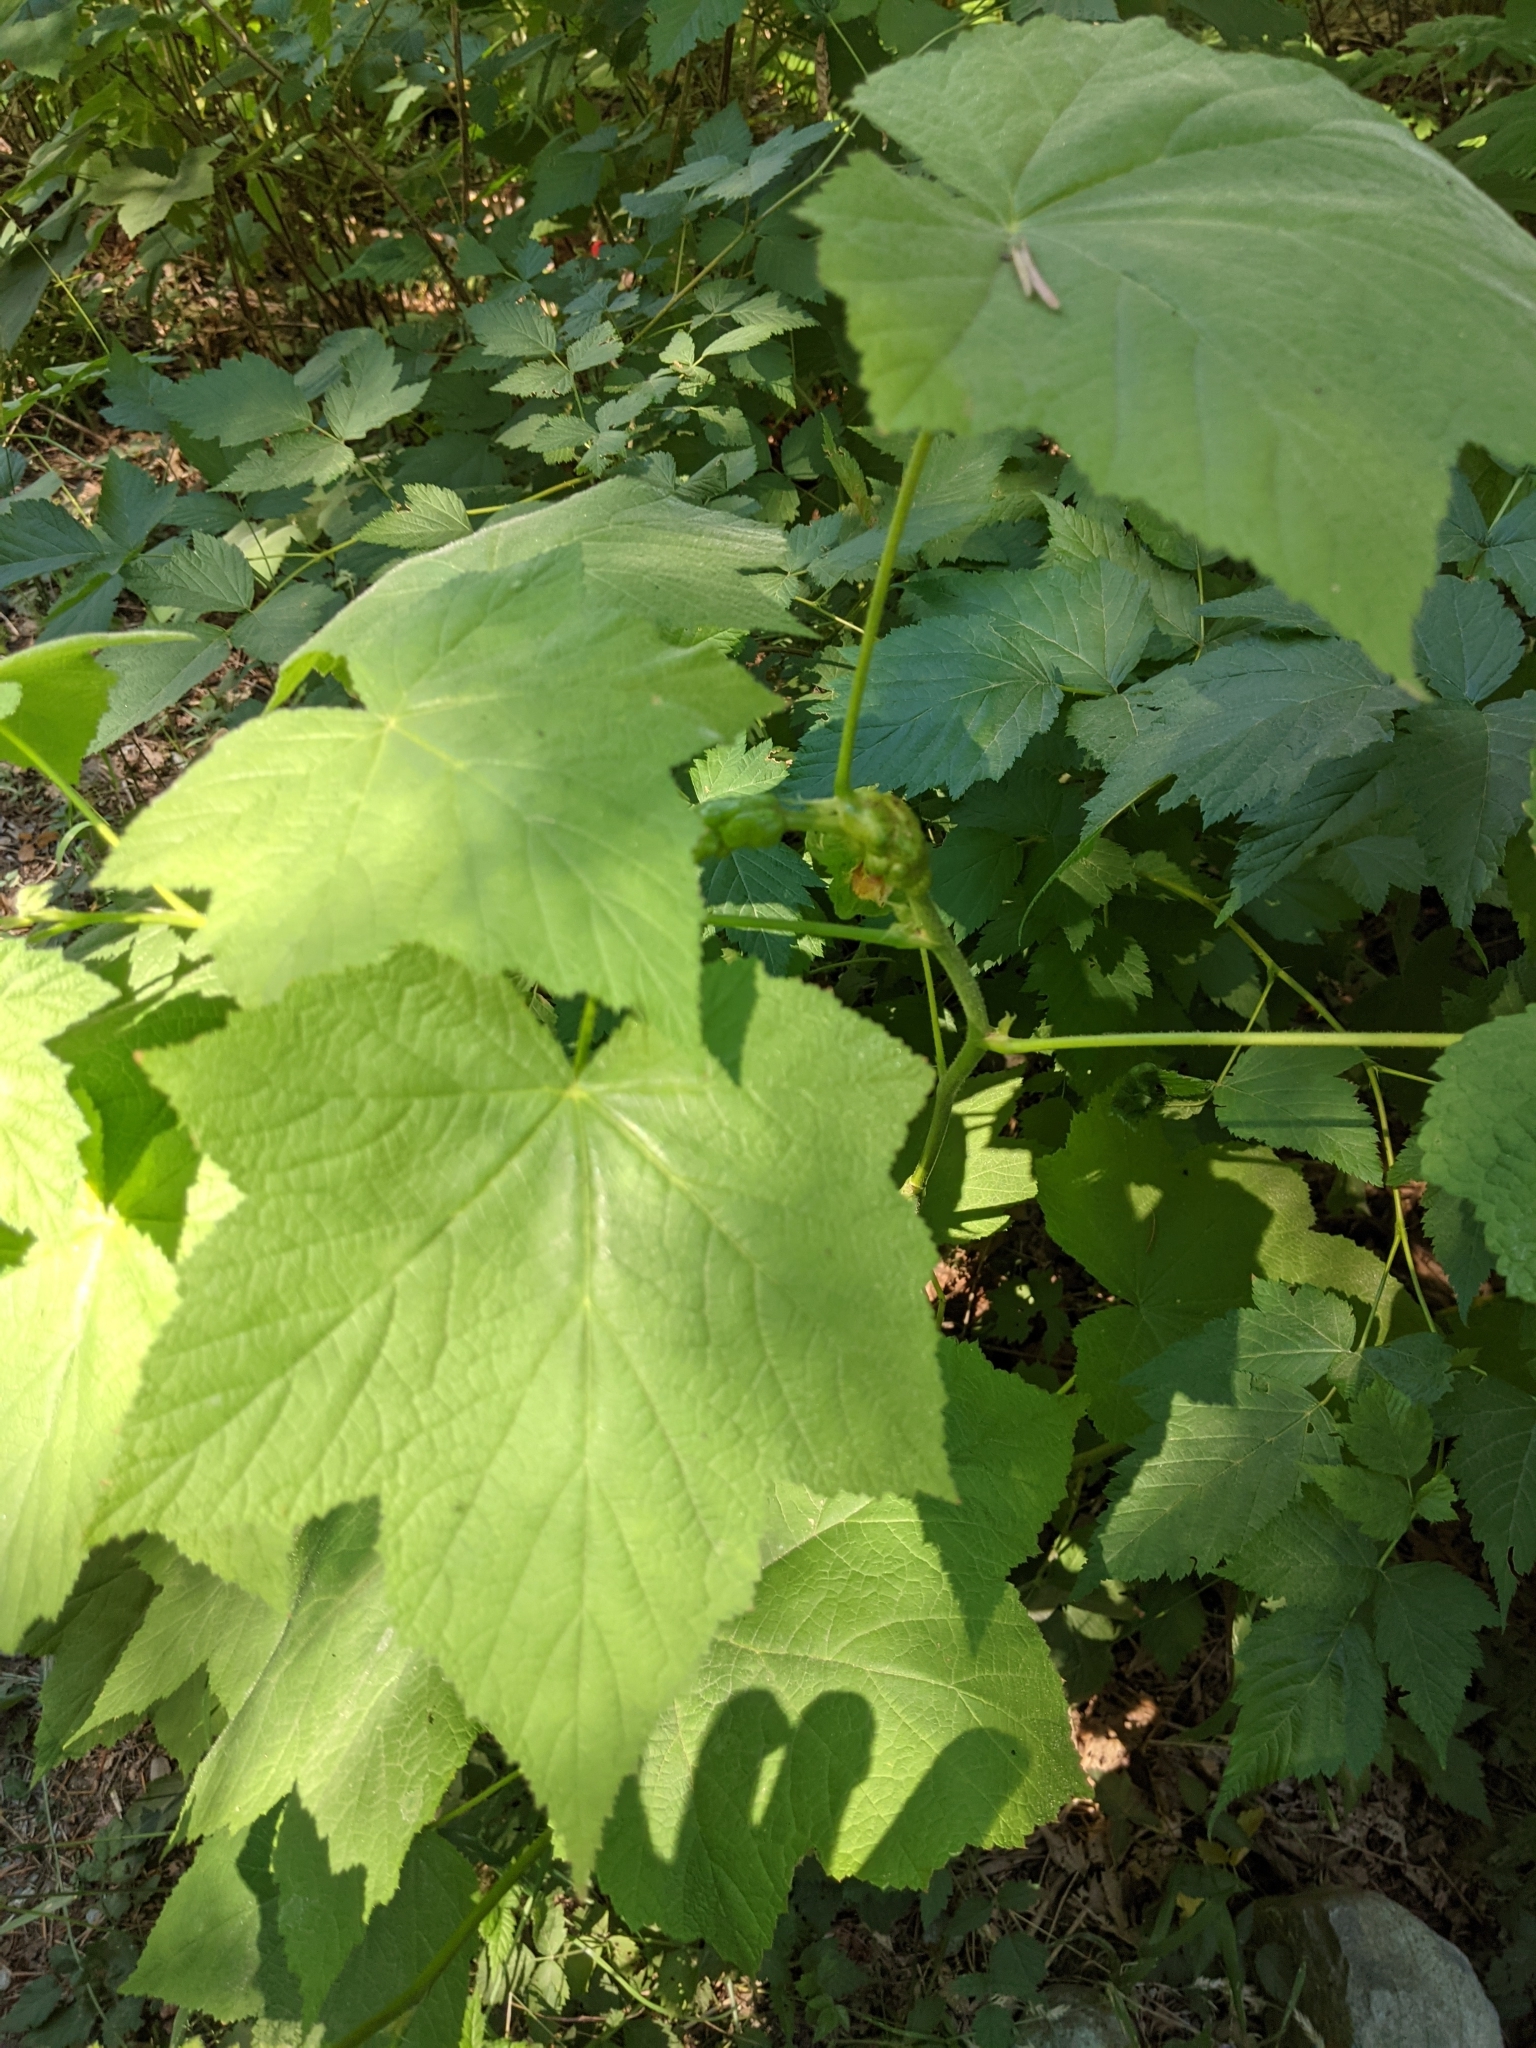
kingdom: Animalia
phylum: Arthropoda
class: Insecta
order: Hymenoptera
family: Cynipidae
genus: Diastrophus
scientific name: Diastrophus
